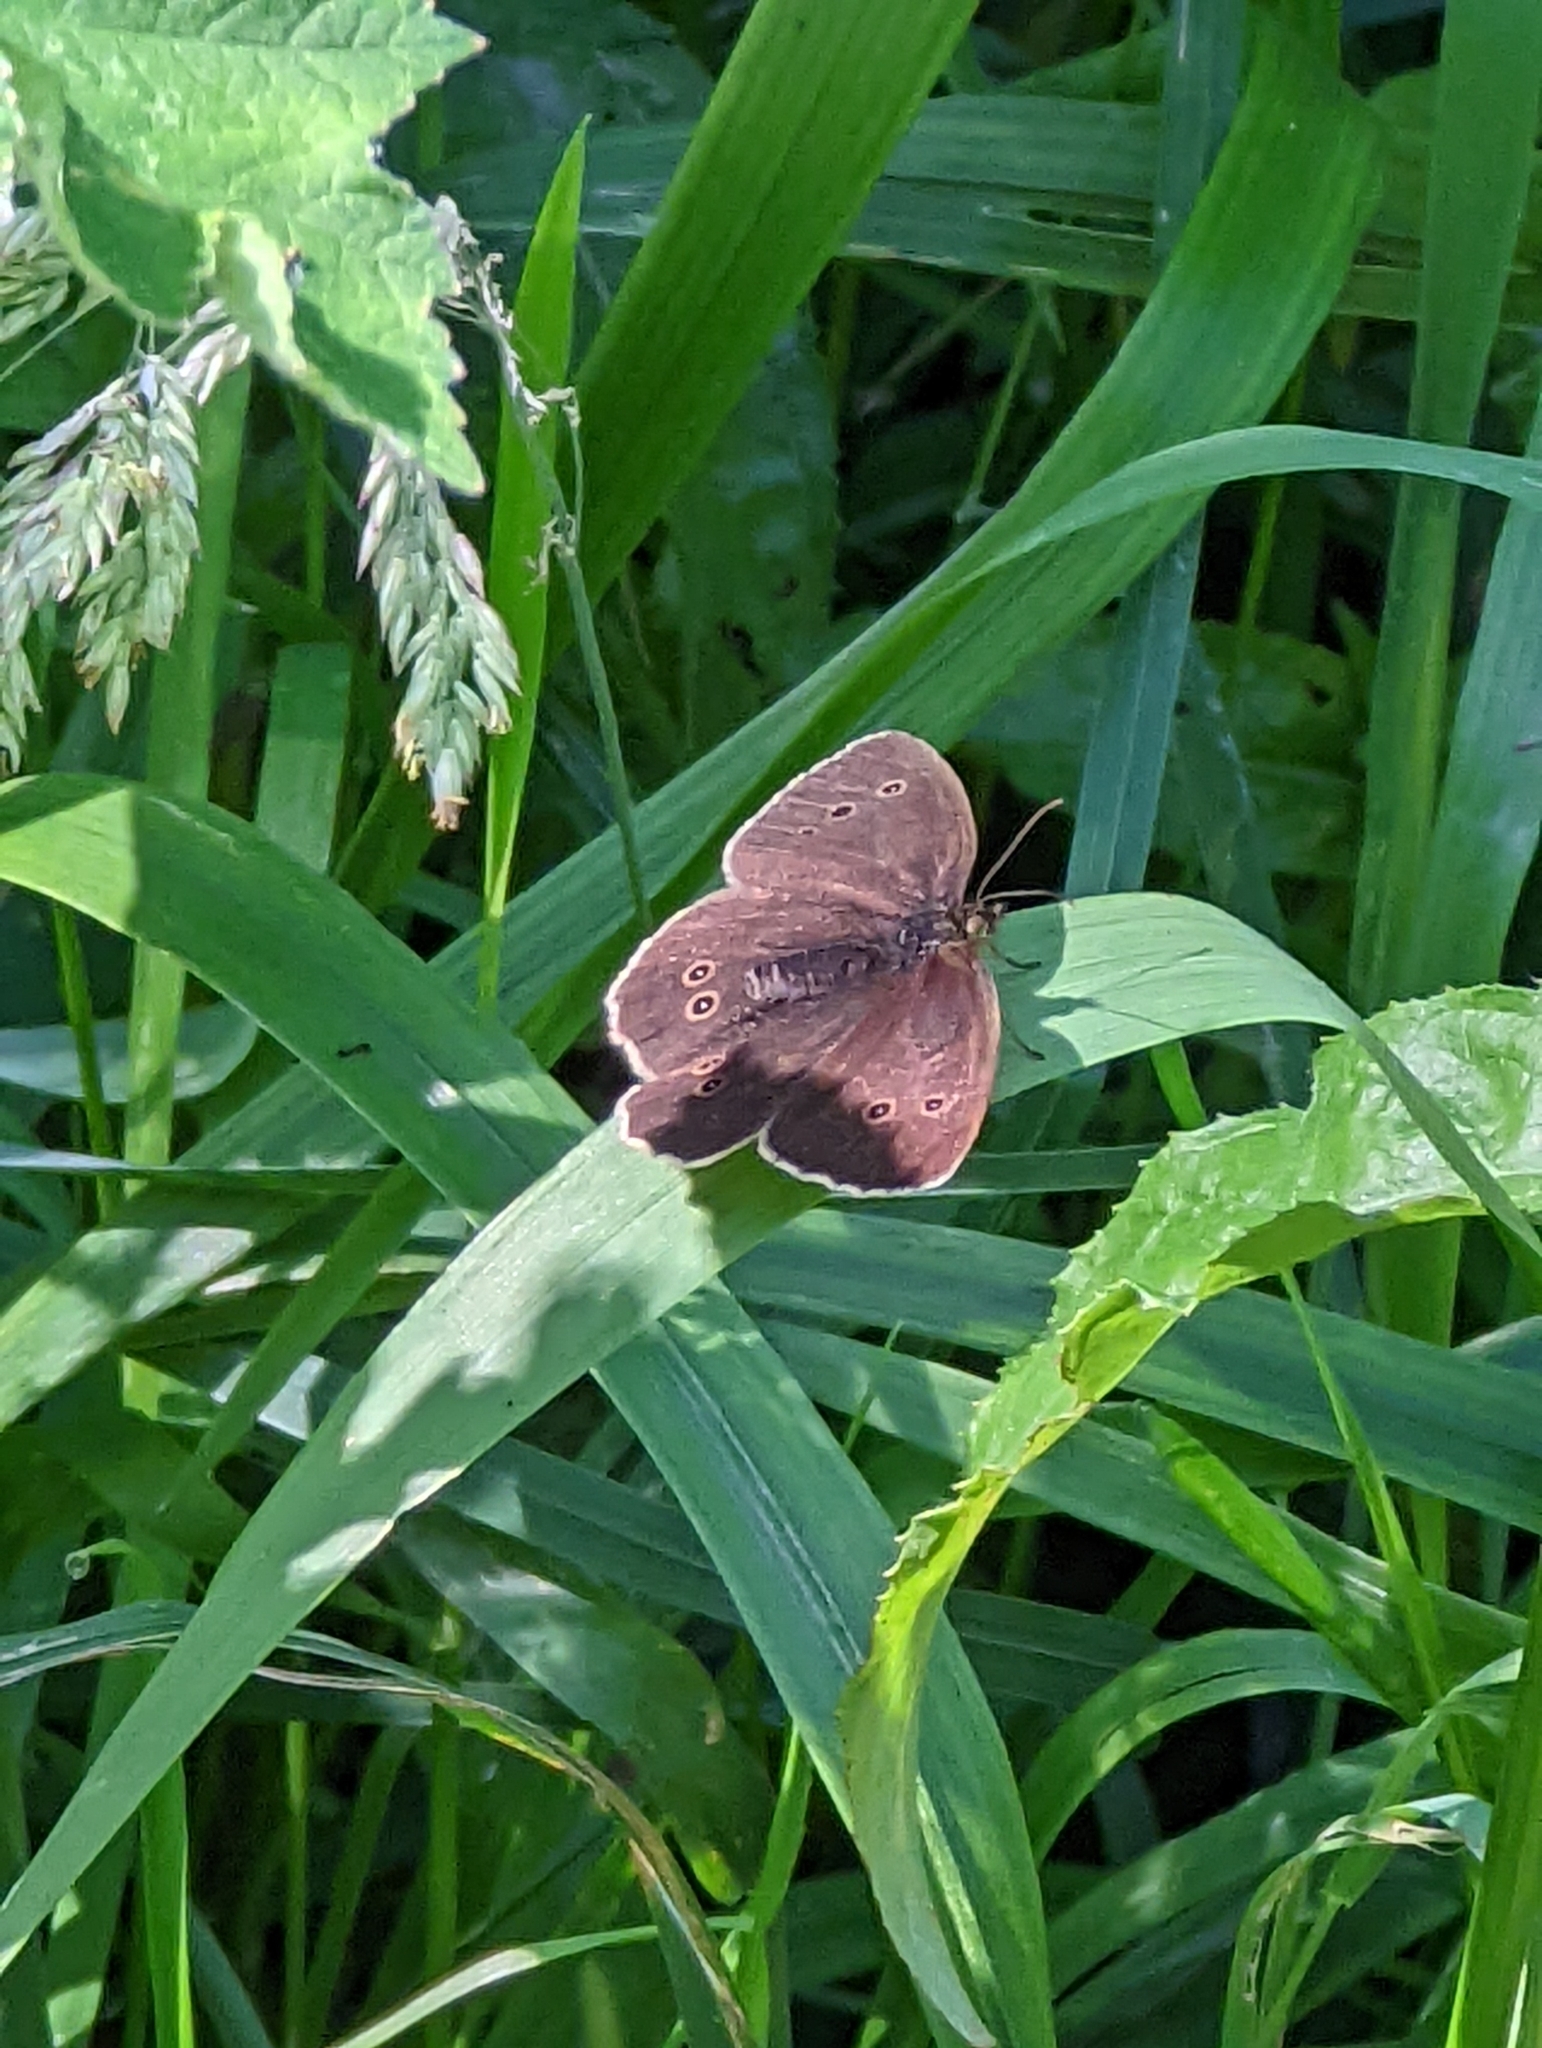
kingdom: Animalia
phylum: Arthropoda
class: Insecta
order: Lepidoptera
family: Nymphalidae
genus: Aphantopus
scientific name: Aphantopus hyperantus
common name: Ringlet
